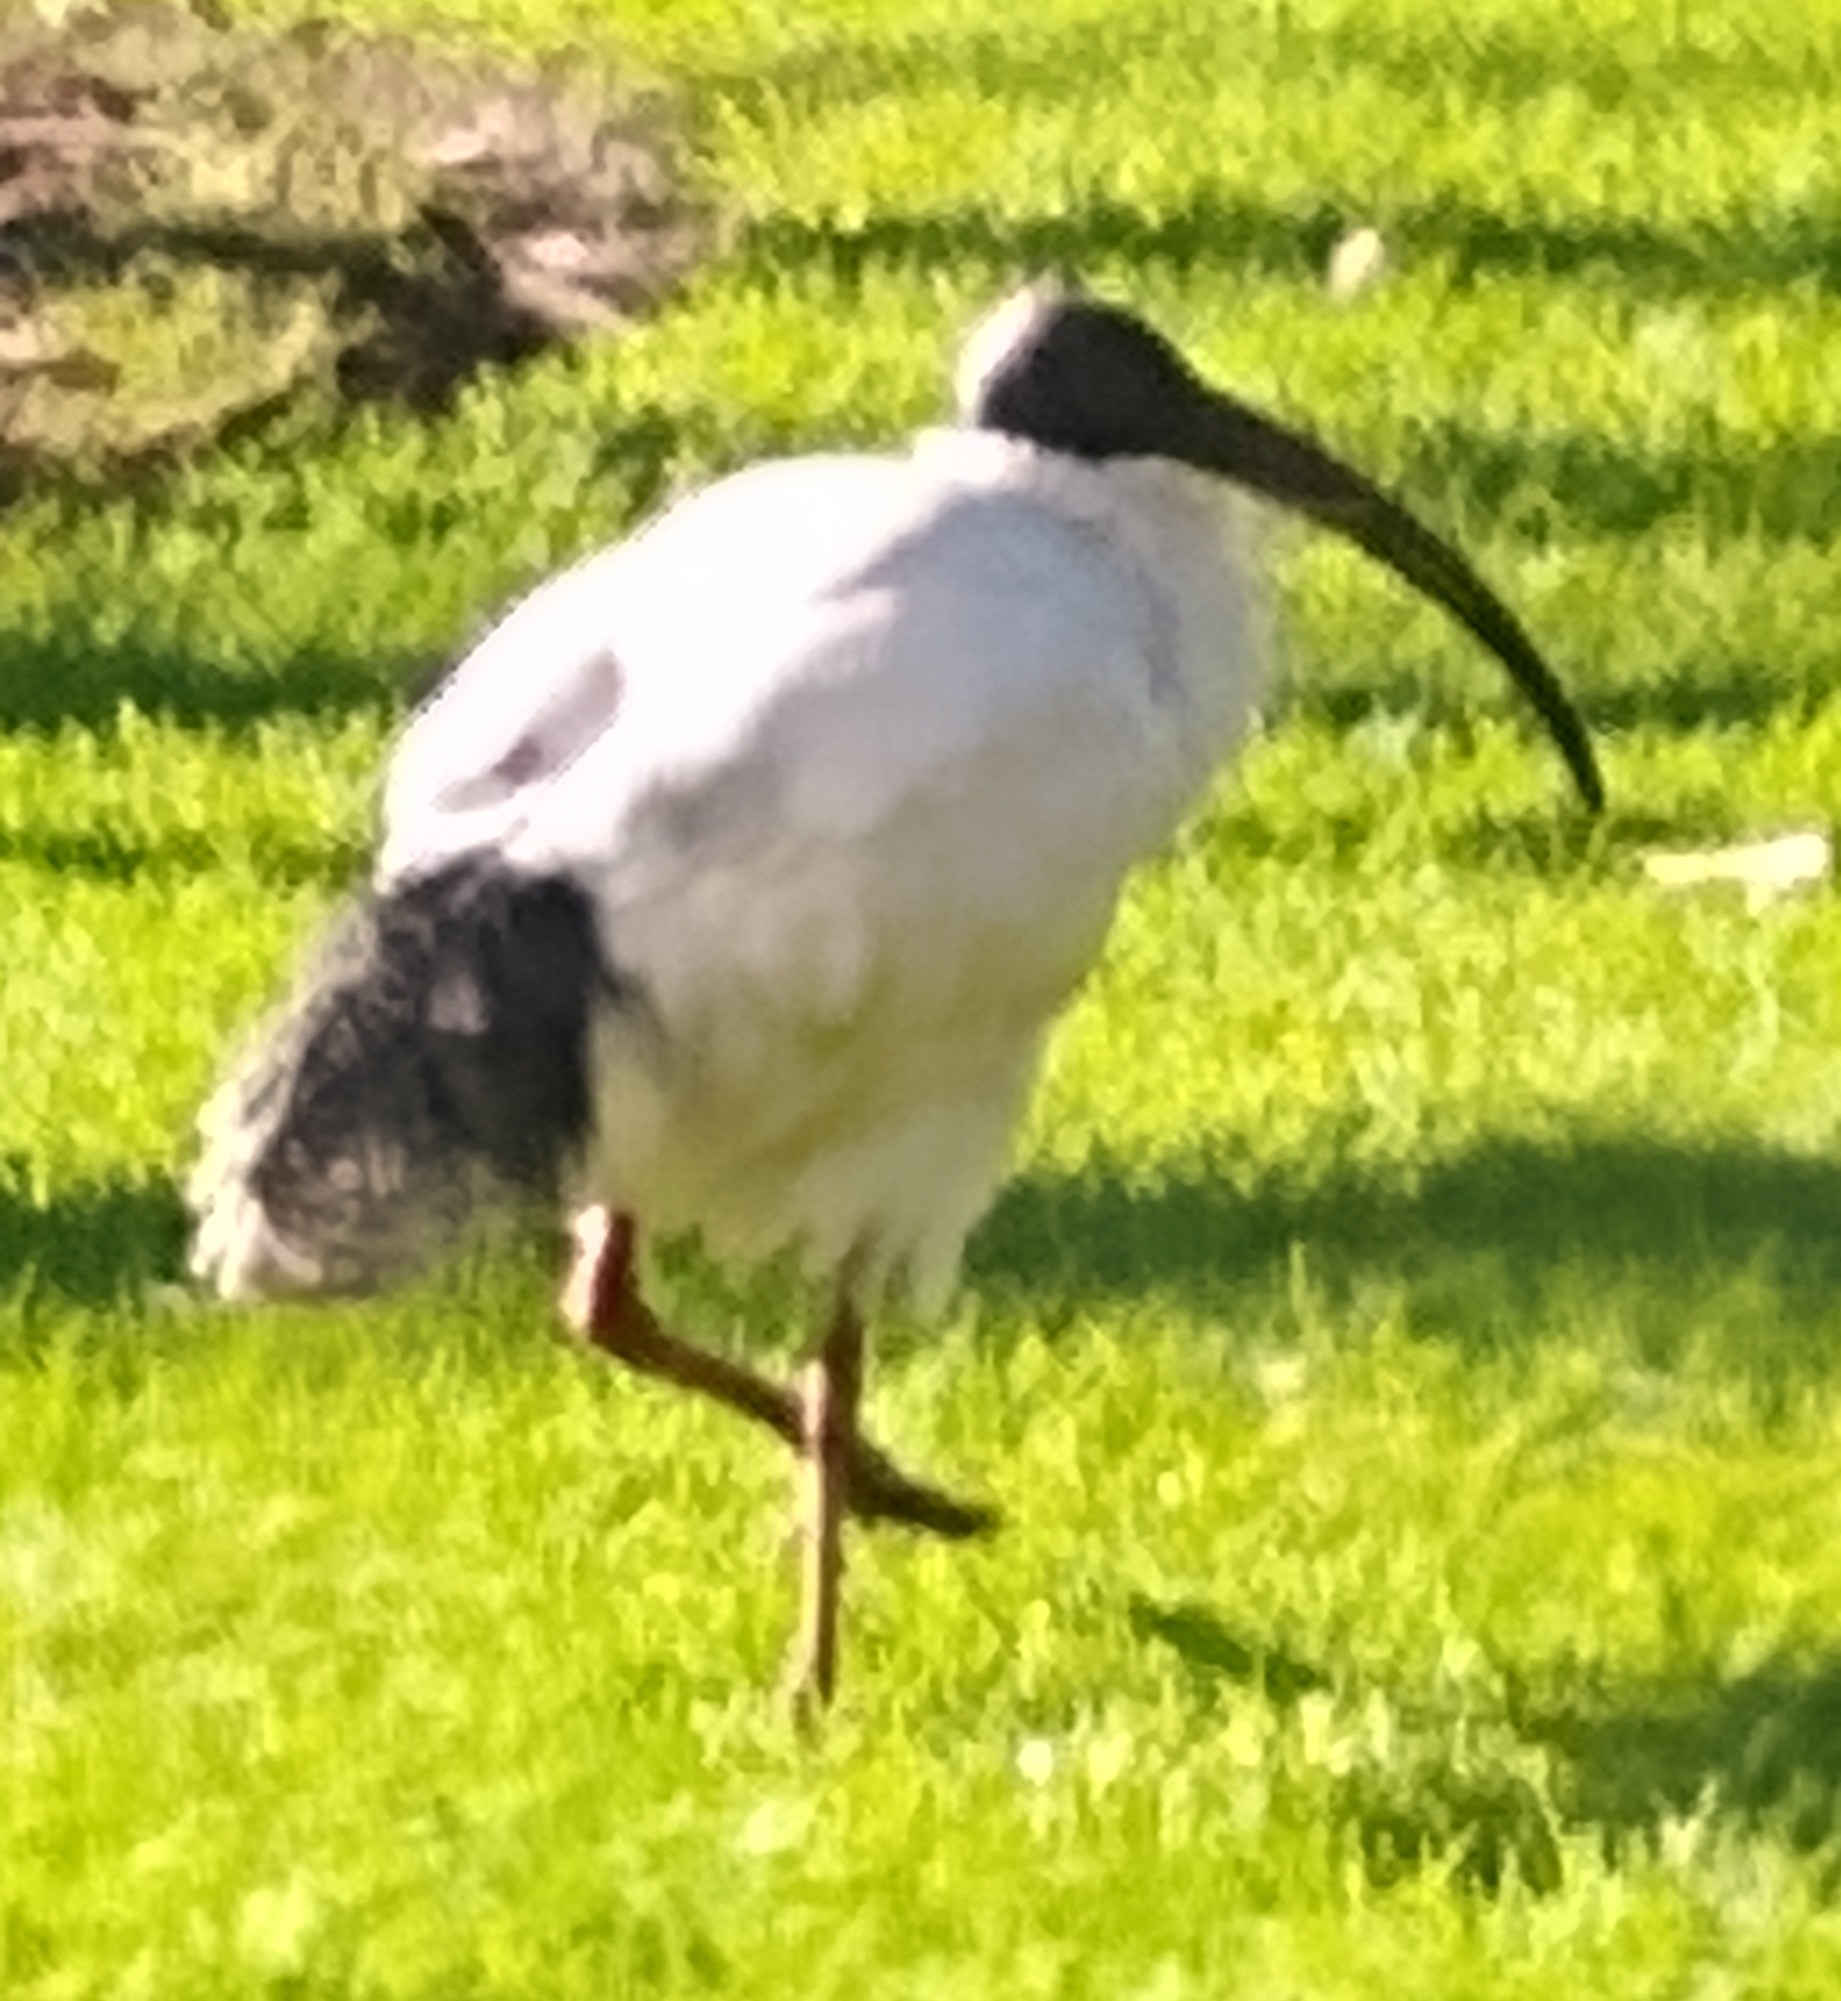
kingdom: Animalia
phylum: Chordata
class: Aves
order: Pelecaniformes
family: Threskiornithidae
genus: Threskiornis
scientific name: Threskiornis molucca
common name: Australian white ibis
